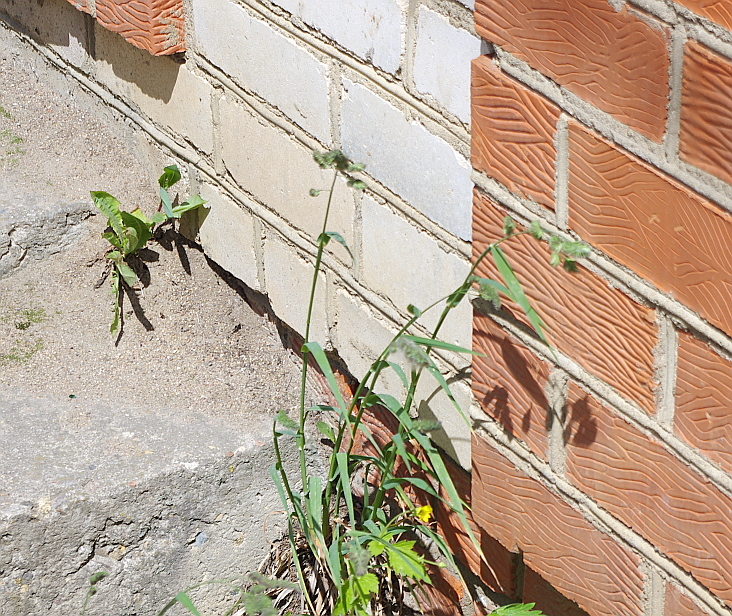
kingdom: Plantae
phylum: Tracheophyta
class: Liliopsida
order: Poales
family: Poaceae
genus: Dactylis
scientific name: Dactylis glomerata
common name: Orchardgrass
